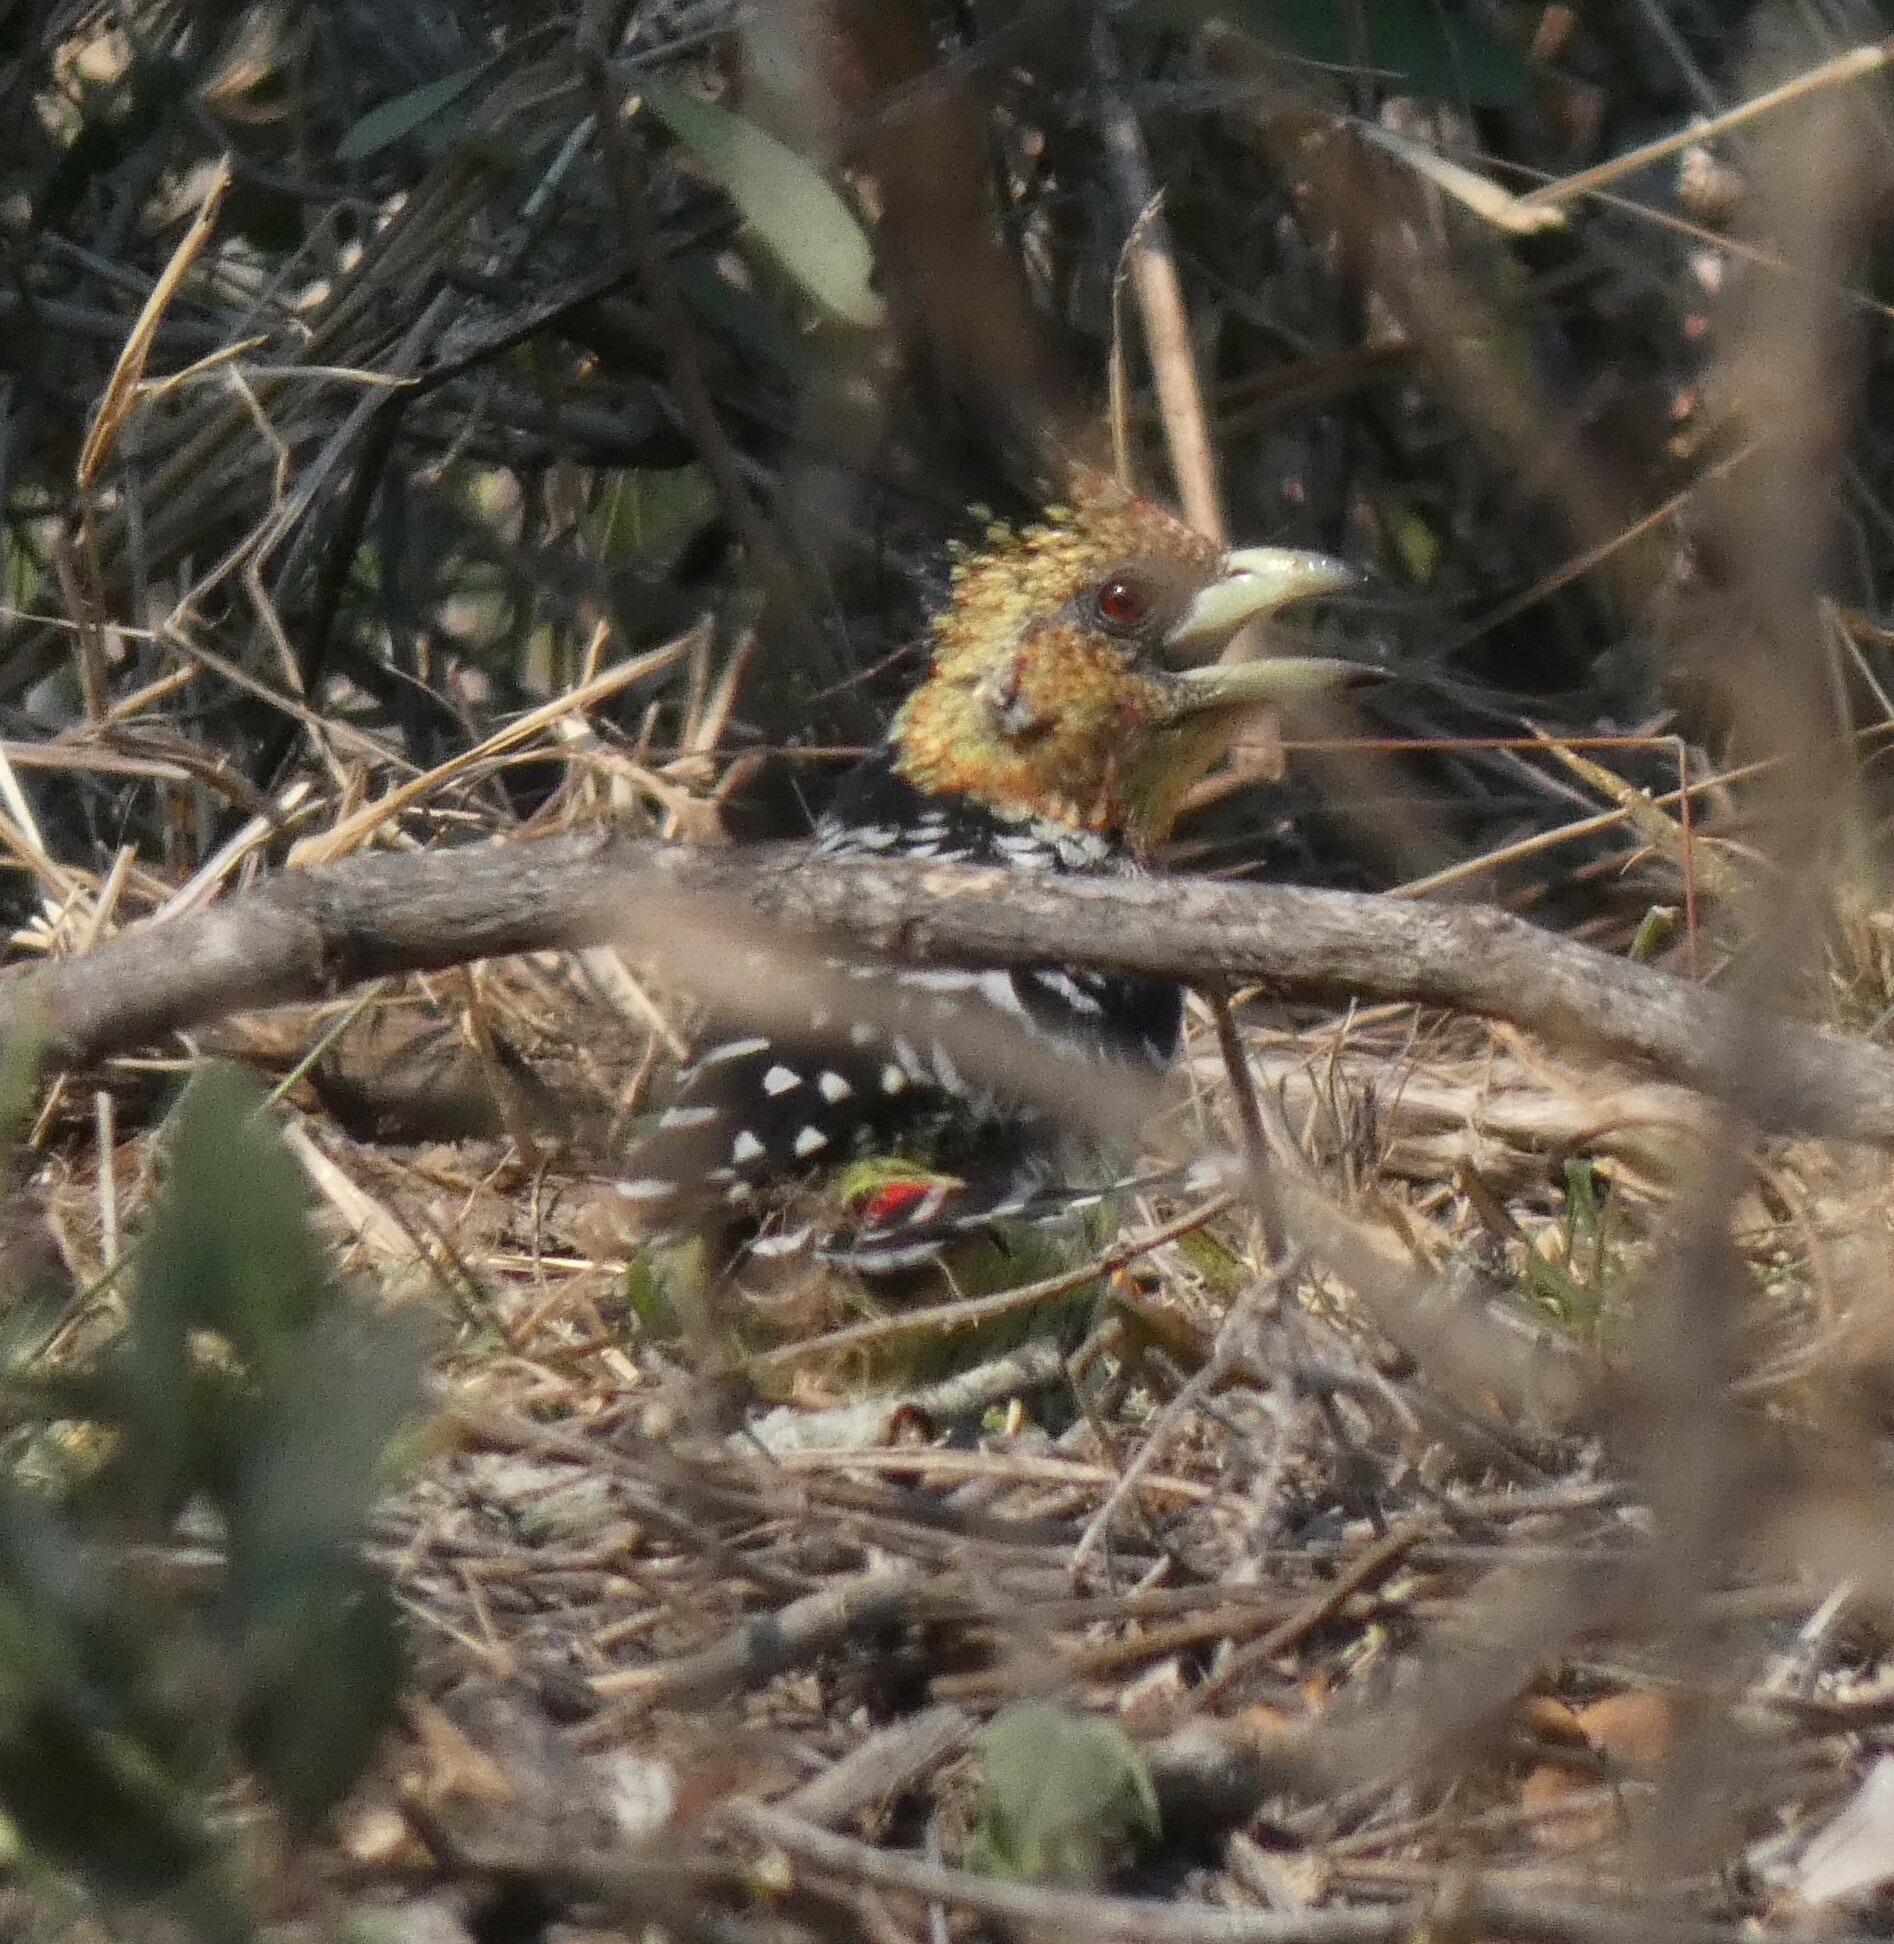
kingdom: Animalia
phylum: Chordata
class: Aves
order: Piciformes
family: Lybiidae
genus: Trachyphonus
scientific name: Trachyphonus vaillantii
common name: Crested barbet
